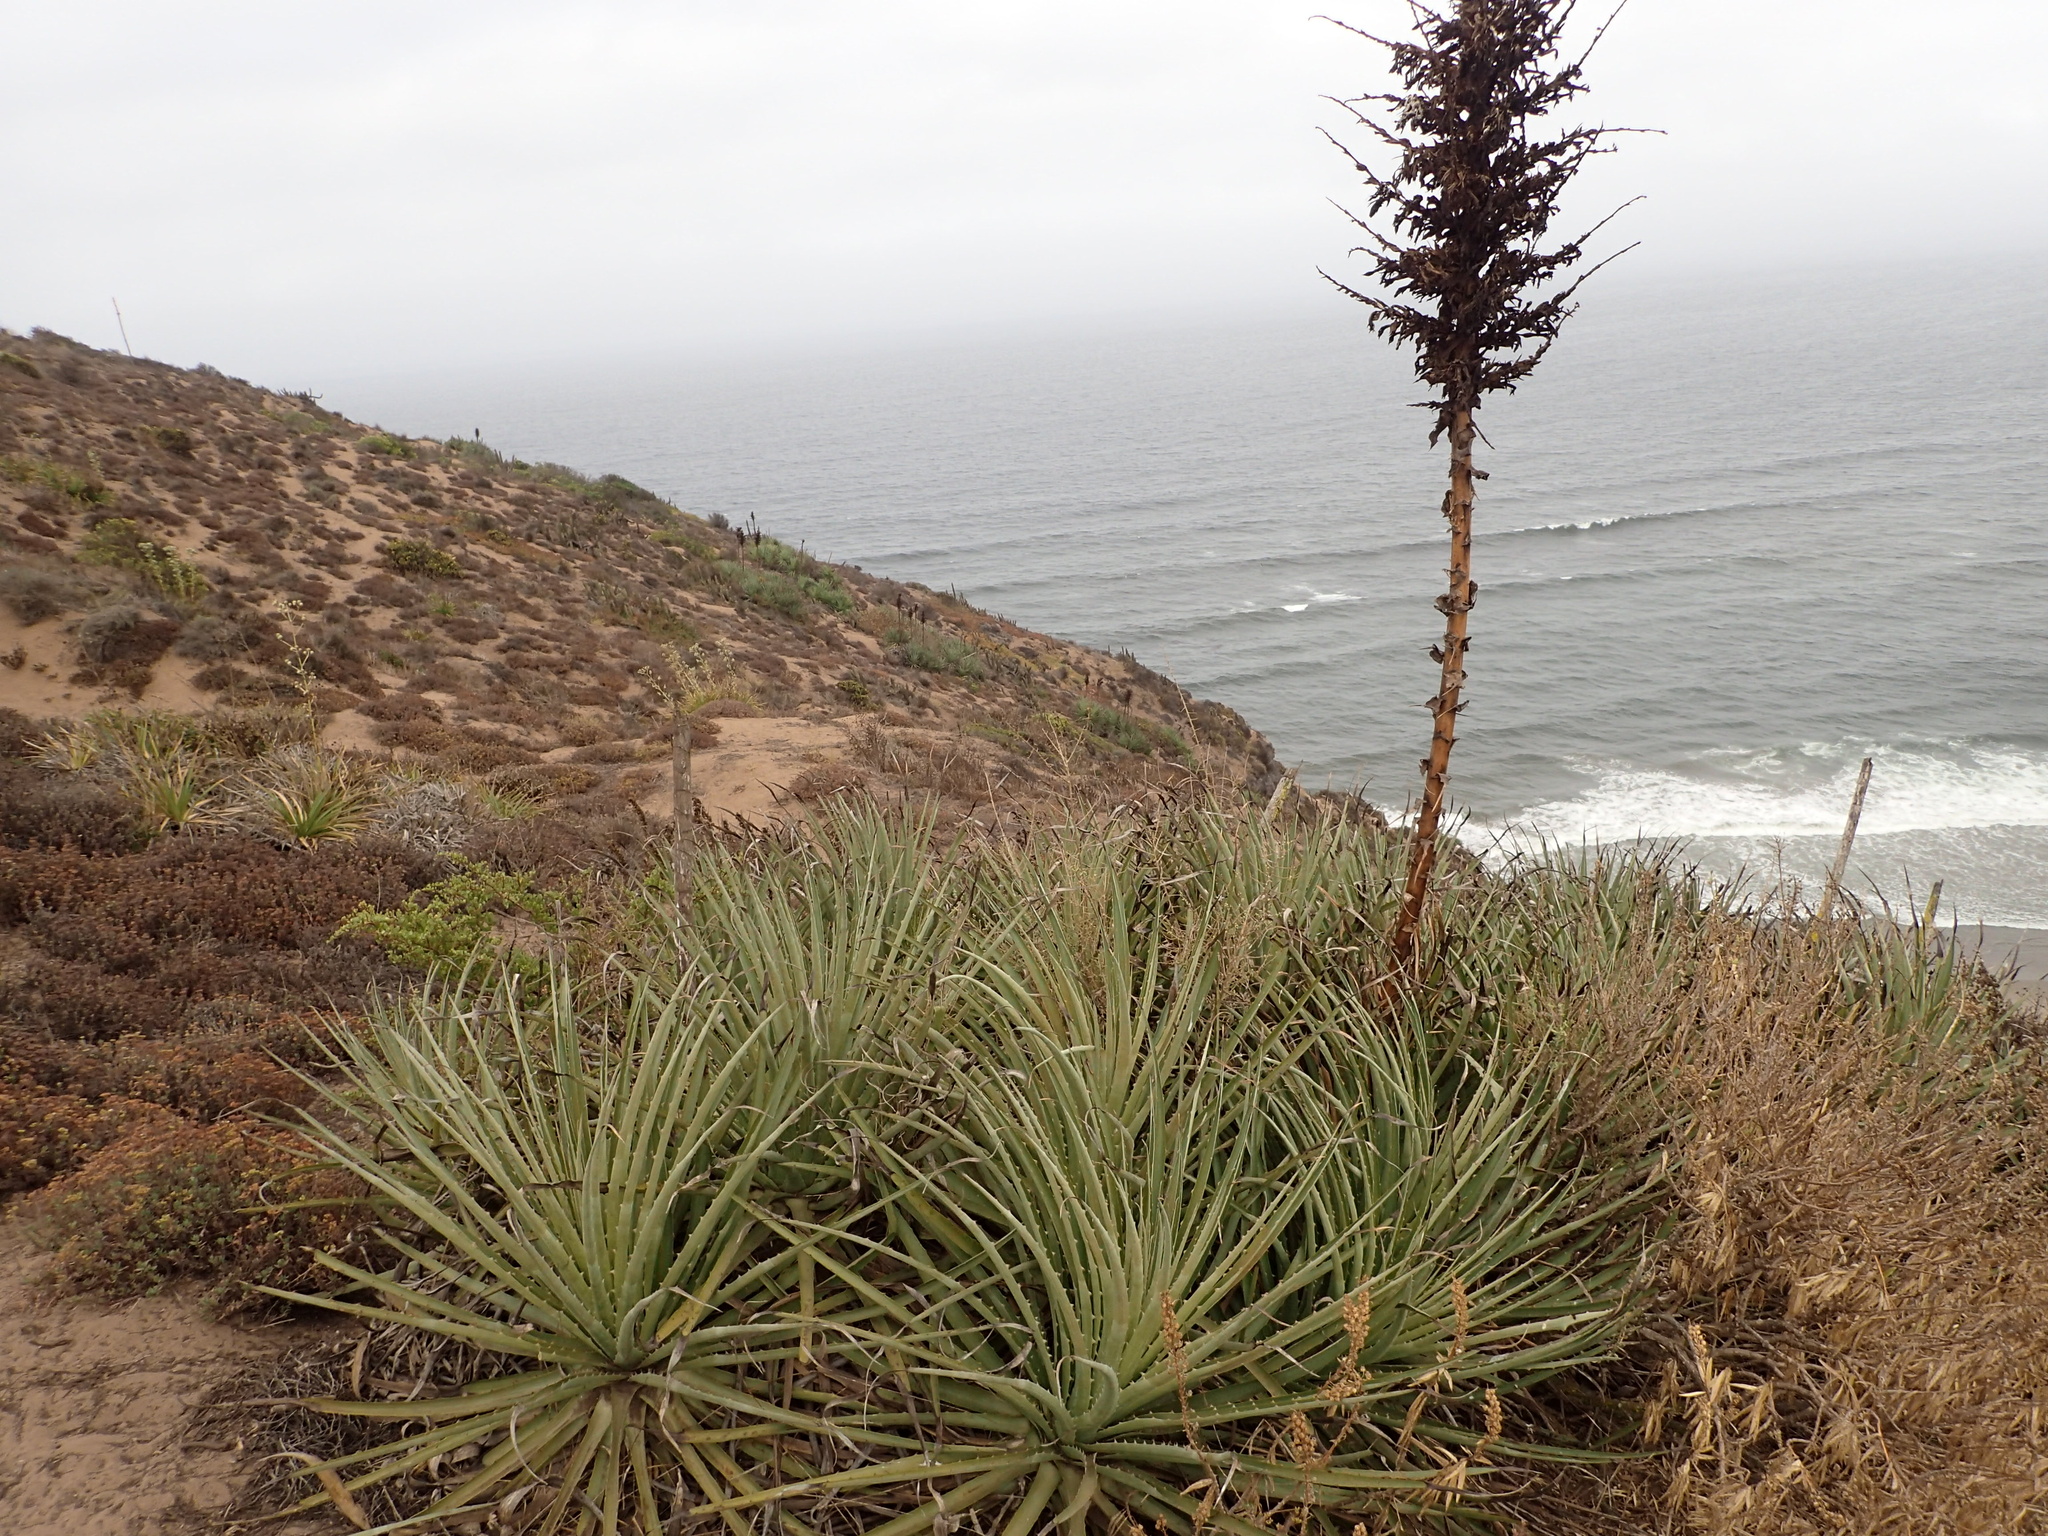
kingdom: Plantae
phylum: Tracheophyta
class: Liliopsida
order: Poales
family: Bromeliaceae
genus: Puya
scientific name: Puya chilensis
